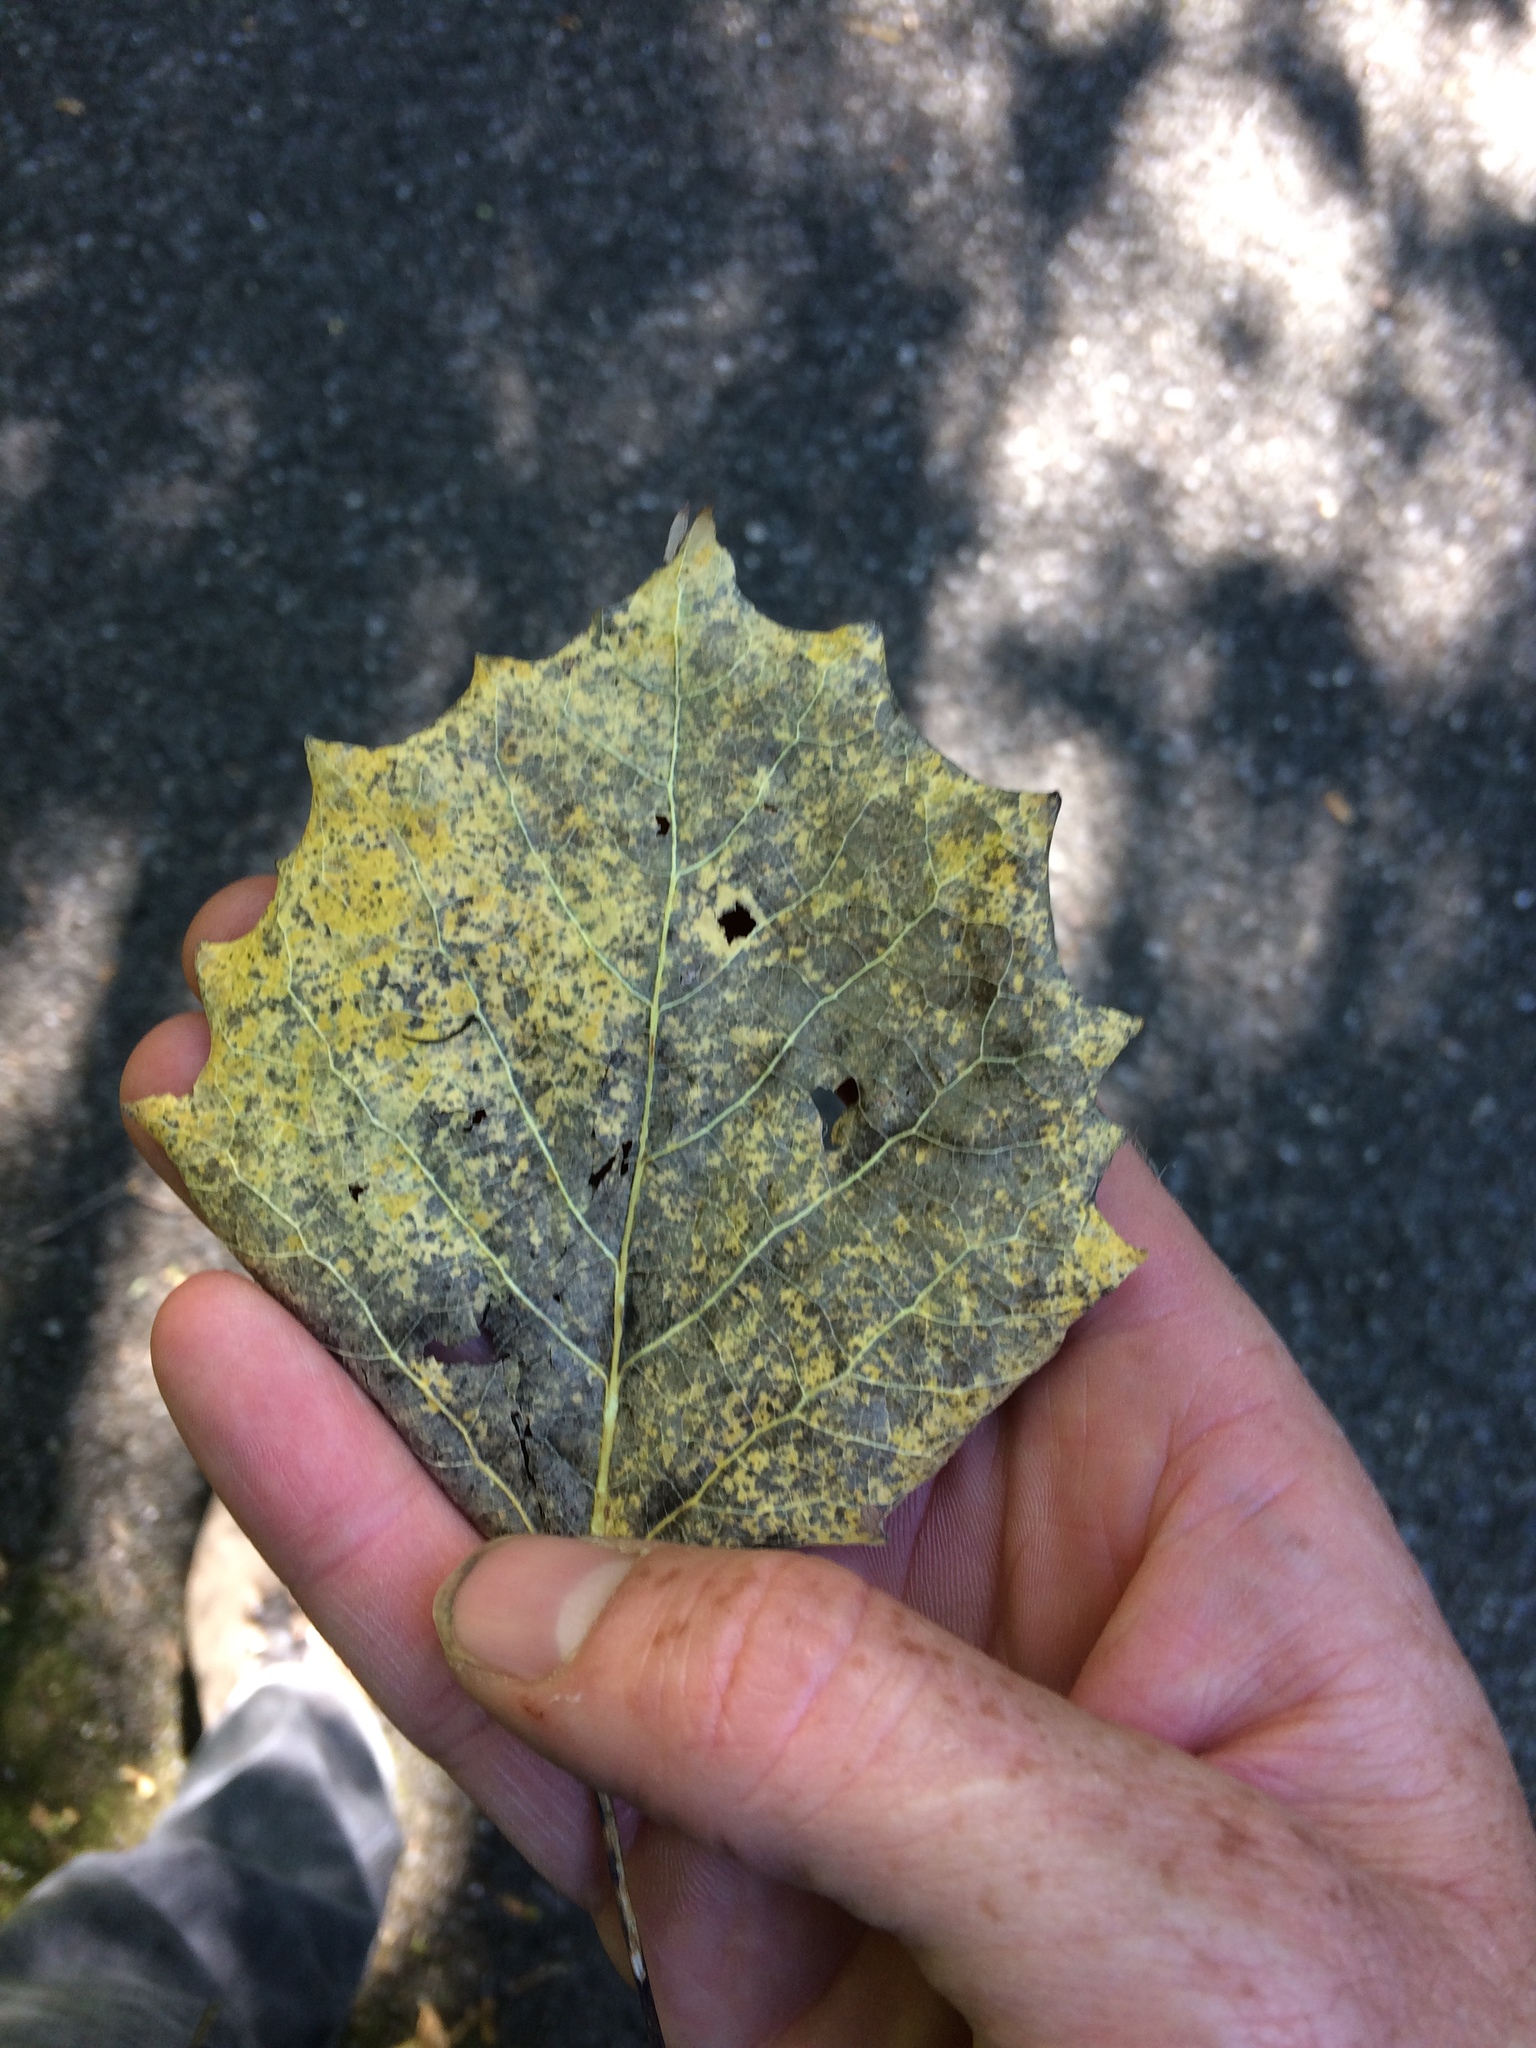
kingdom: Plantae
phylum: Tracheophyta
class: Magnoliopsida
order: Malpighiales
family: Salicaceae
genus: Populus
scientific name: Populus grandidentata
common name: Bigtooth aspen
